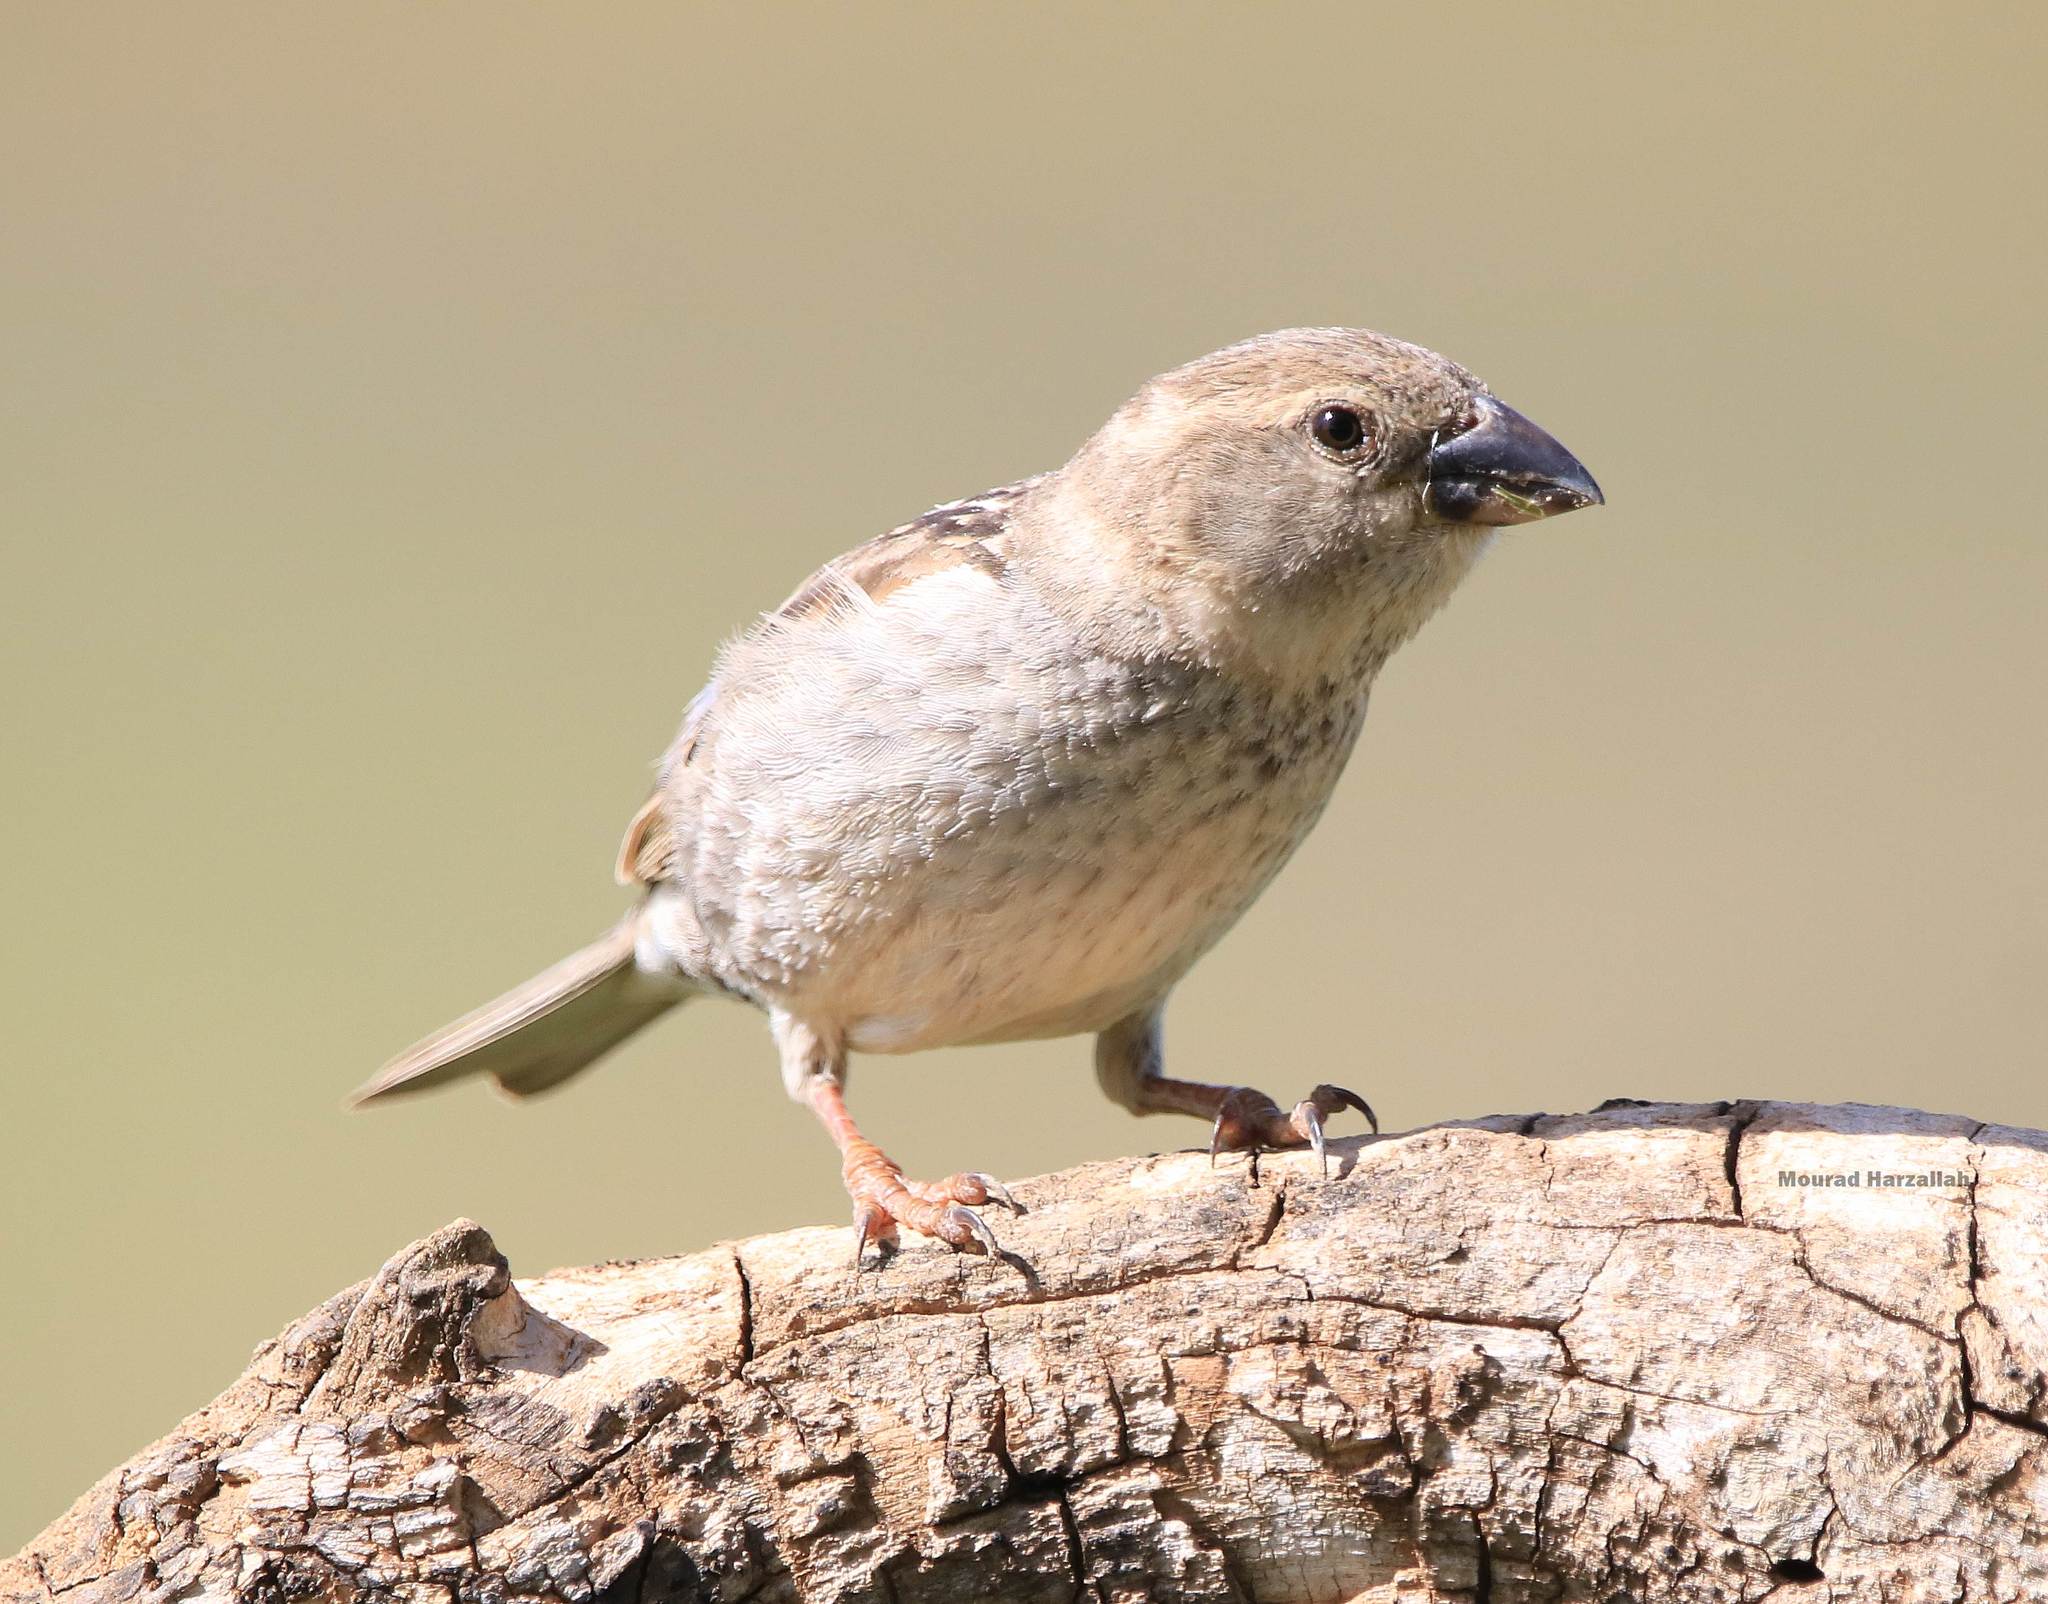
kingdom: Animalia
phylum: Chordata
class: Aves
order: Passeriformes
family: Passeridae
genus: Passer
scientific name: Passer hispaniolensis
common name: Spanish sparrow
